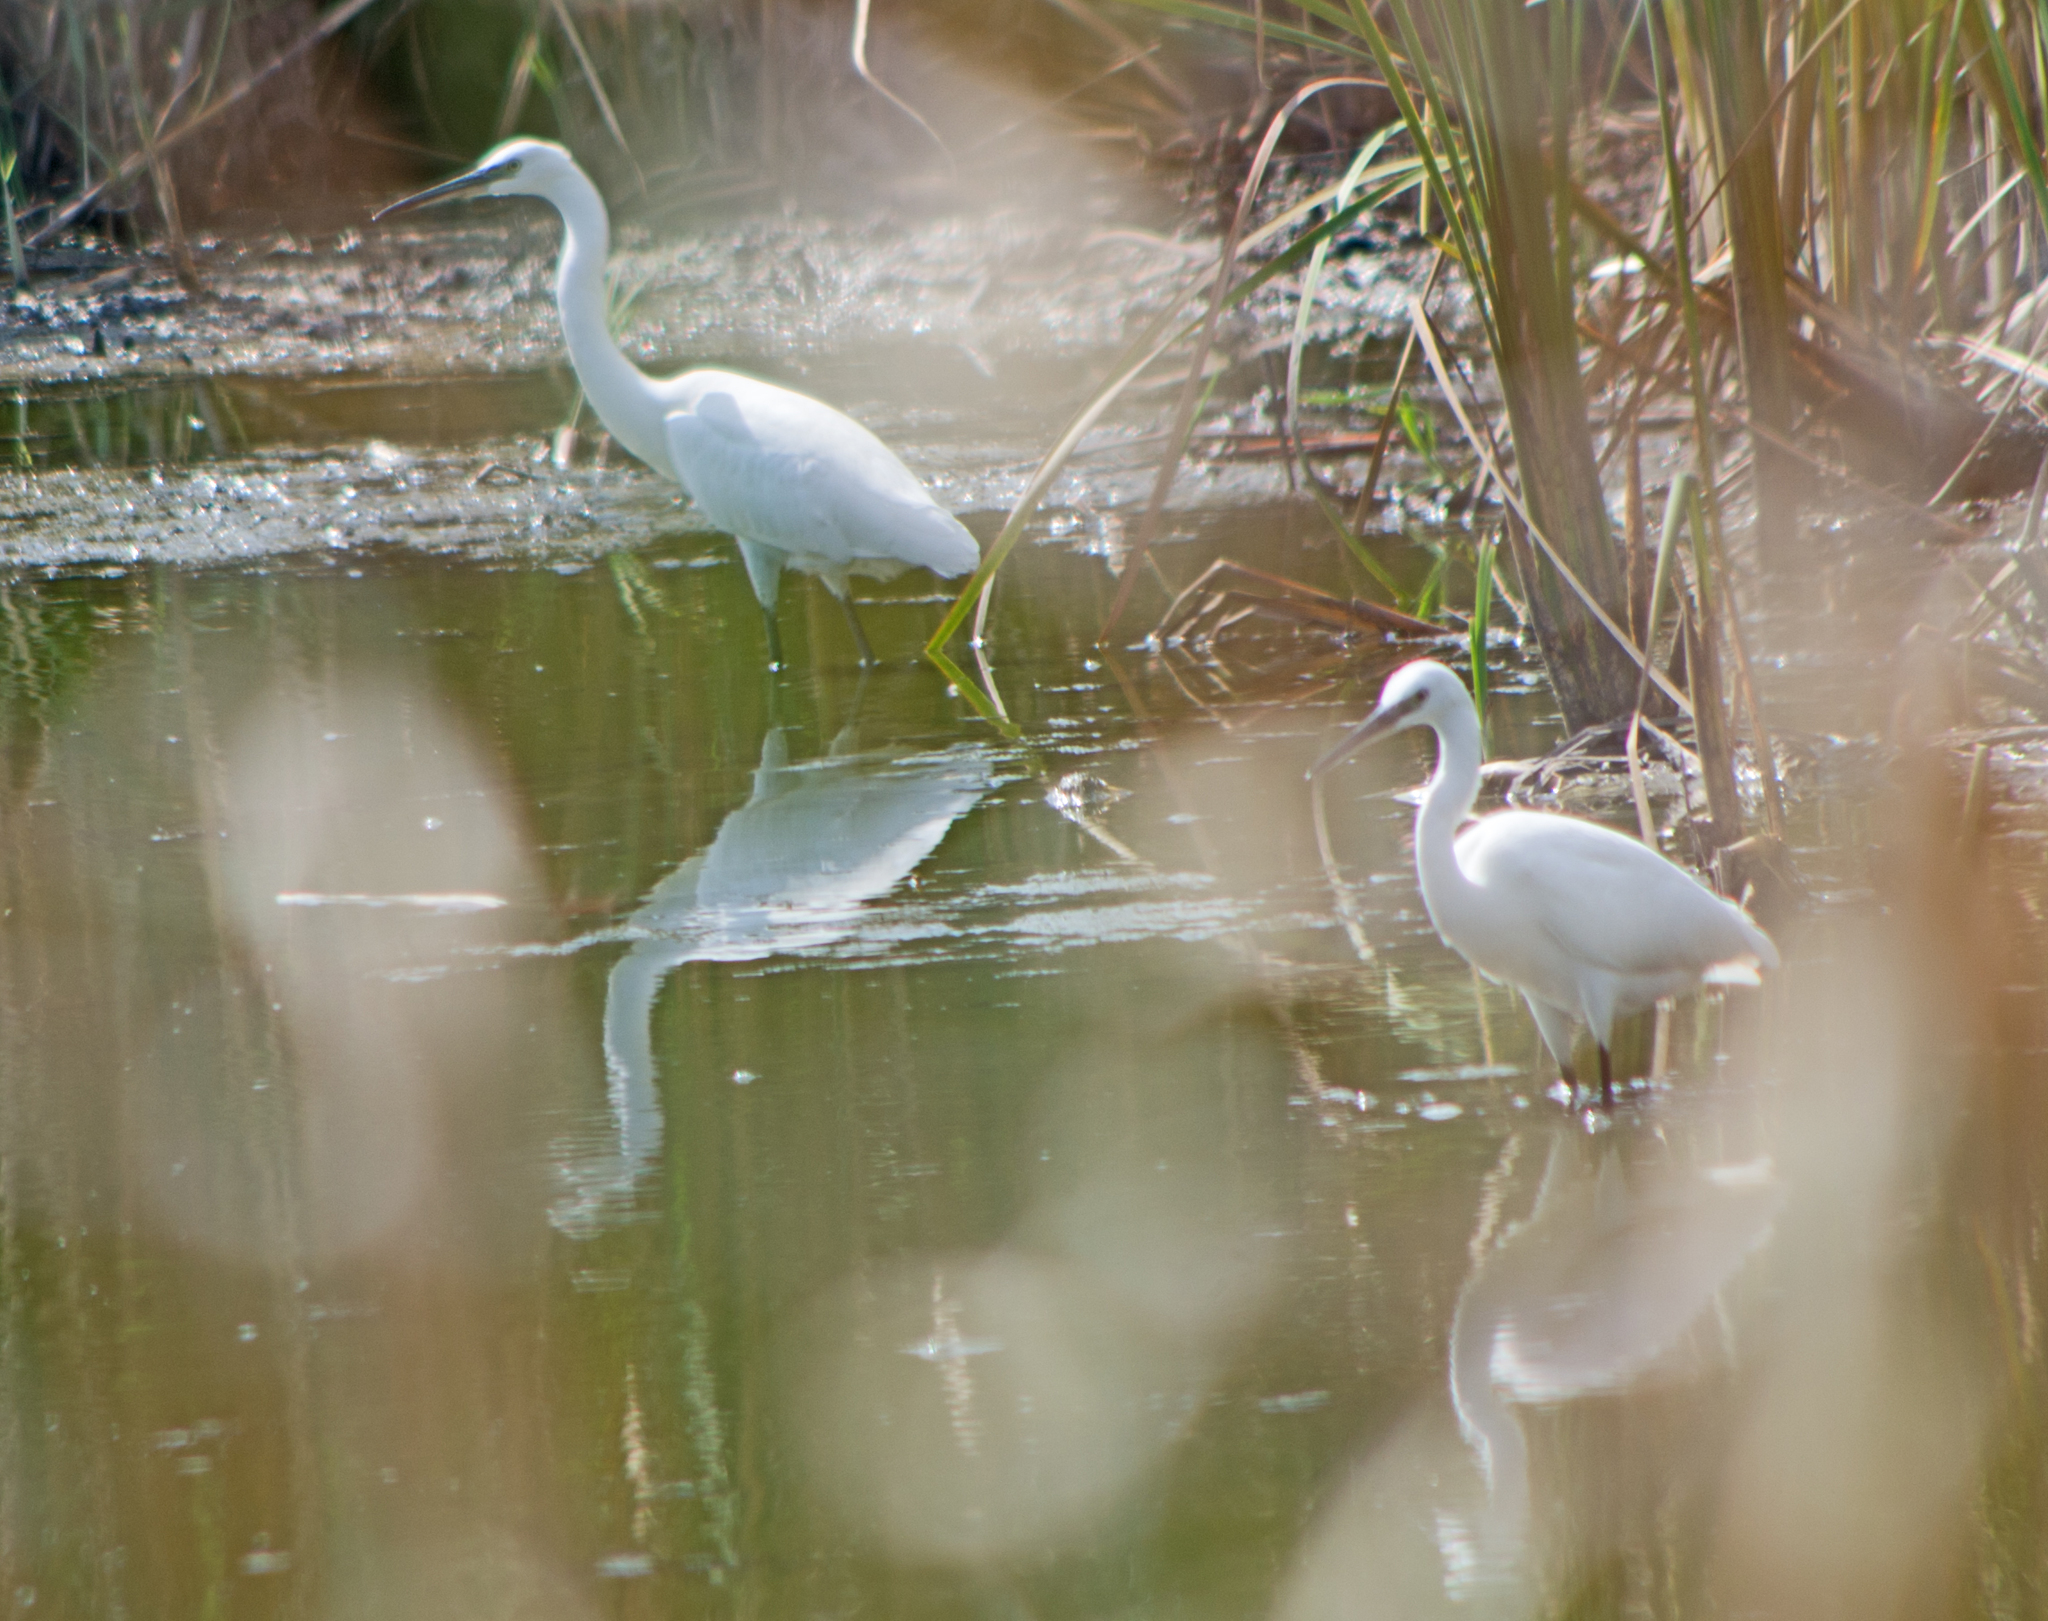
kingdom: Animalia
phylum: Chordata
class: Aves
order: Pelecaniformes
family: Ardeidae
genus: Egretta
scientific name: Egretta garzetta
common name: Little egret
